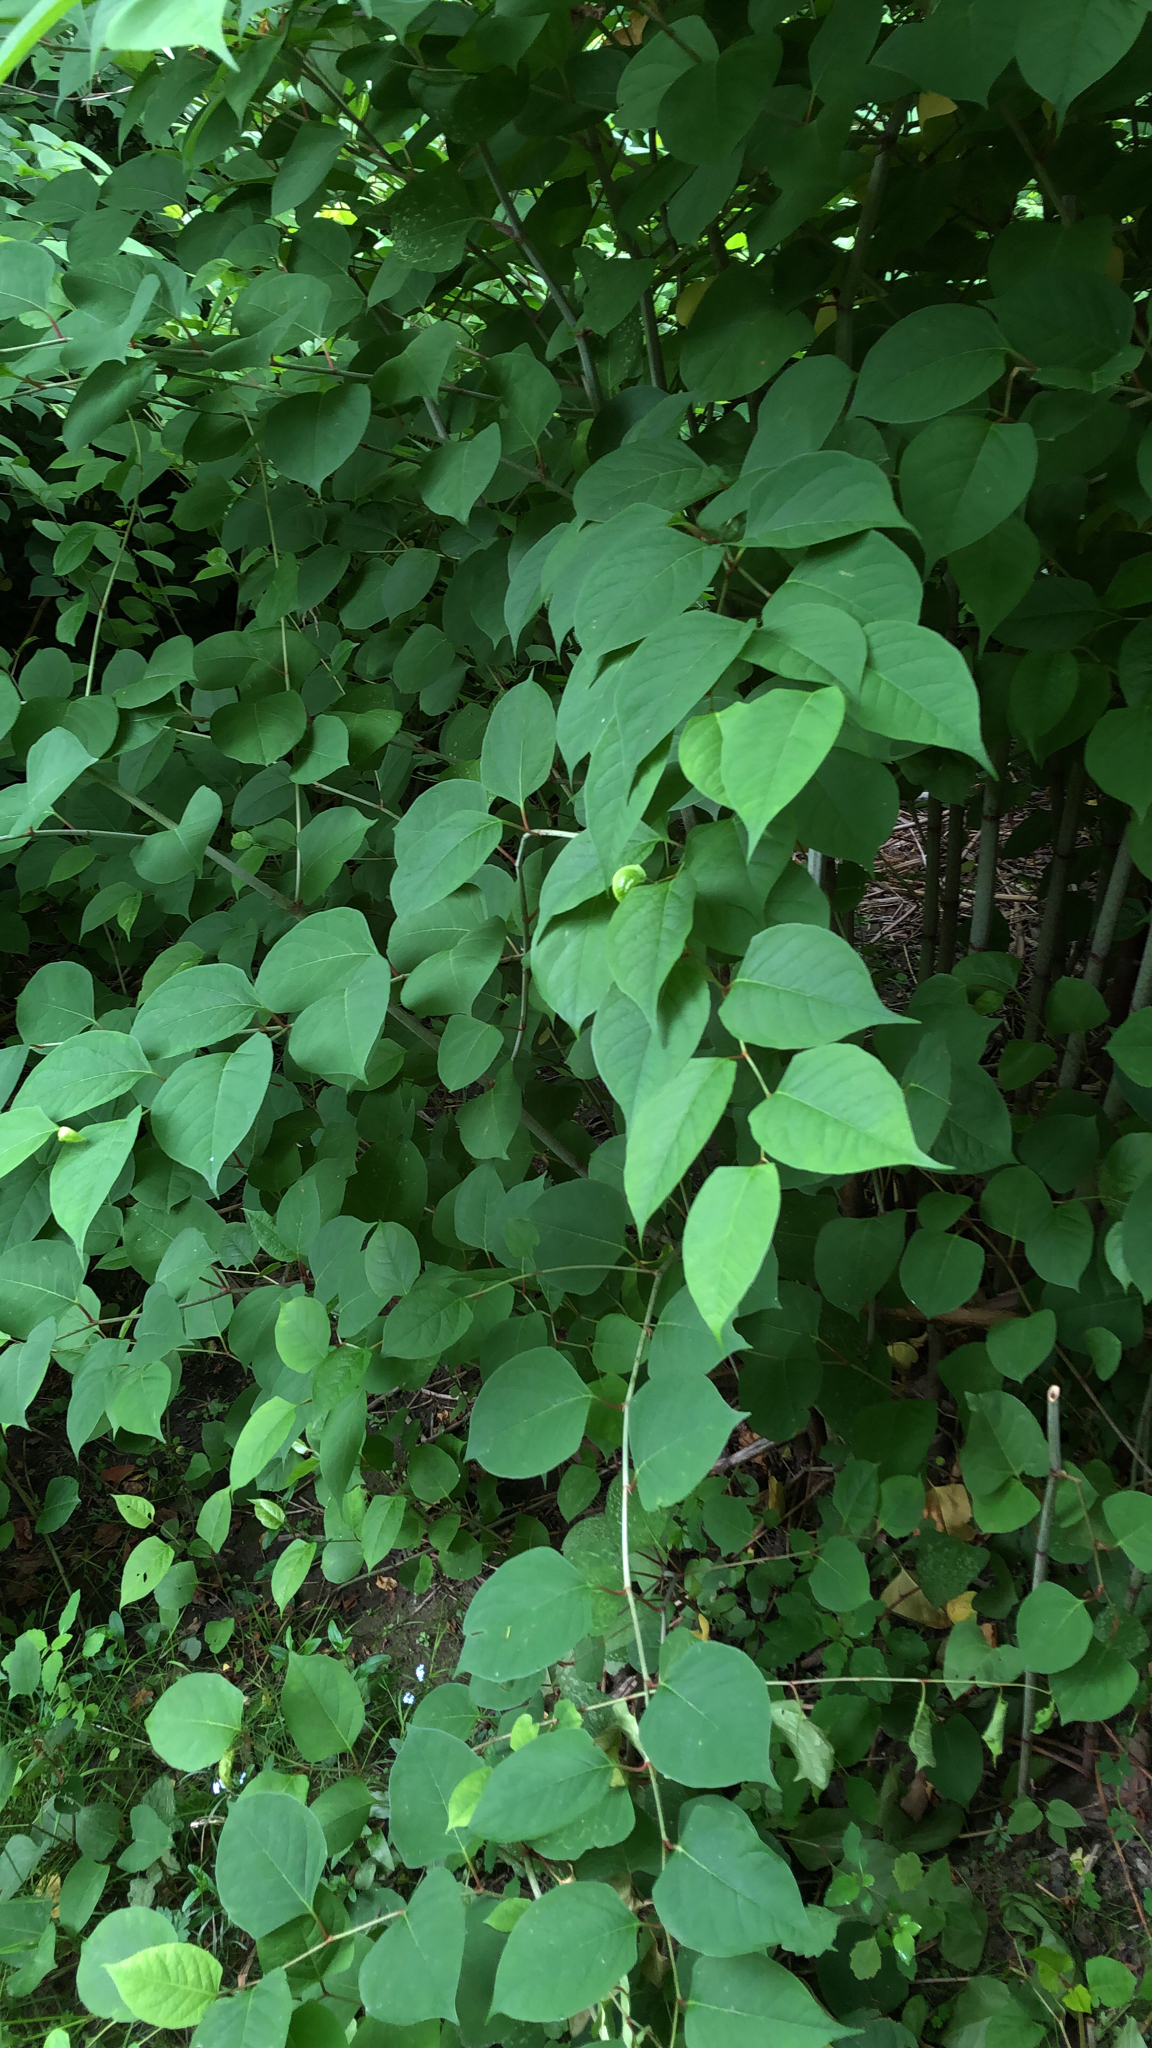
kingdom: Plantae
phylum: Tracheophyta
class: Magnoliopsida
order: Caryophyllales
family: Polygonaceae
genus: Reynoutria
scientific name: Reynoutria japonica
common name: Japanese knotweed
